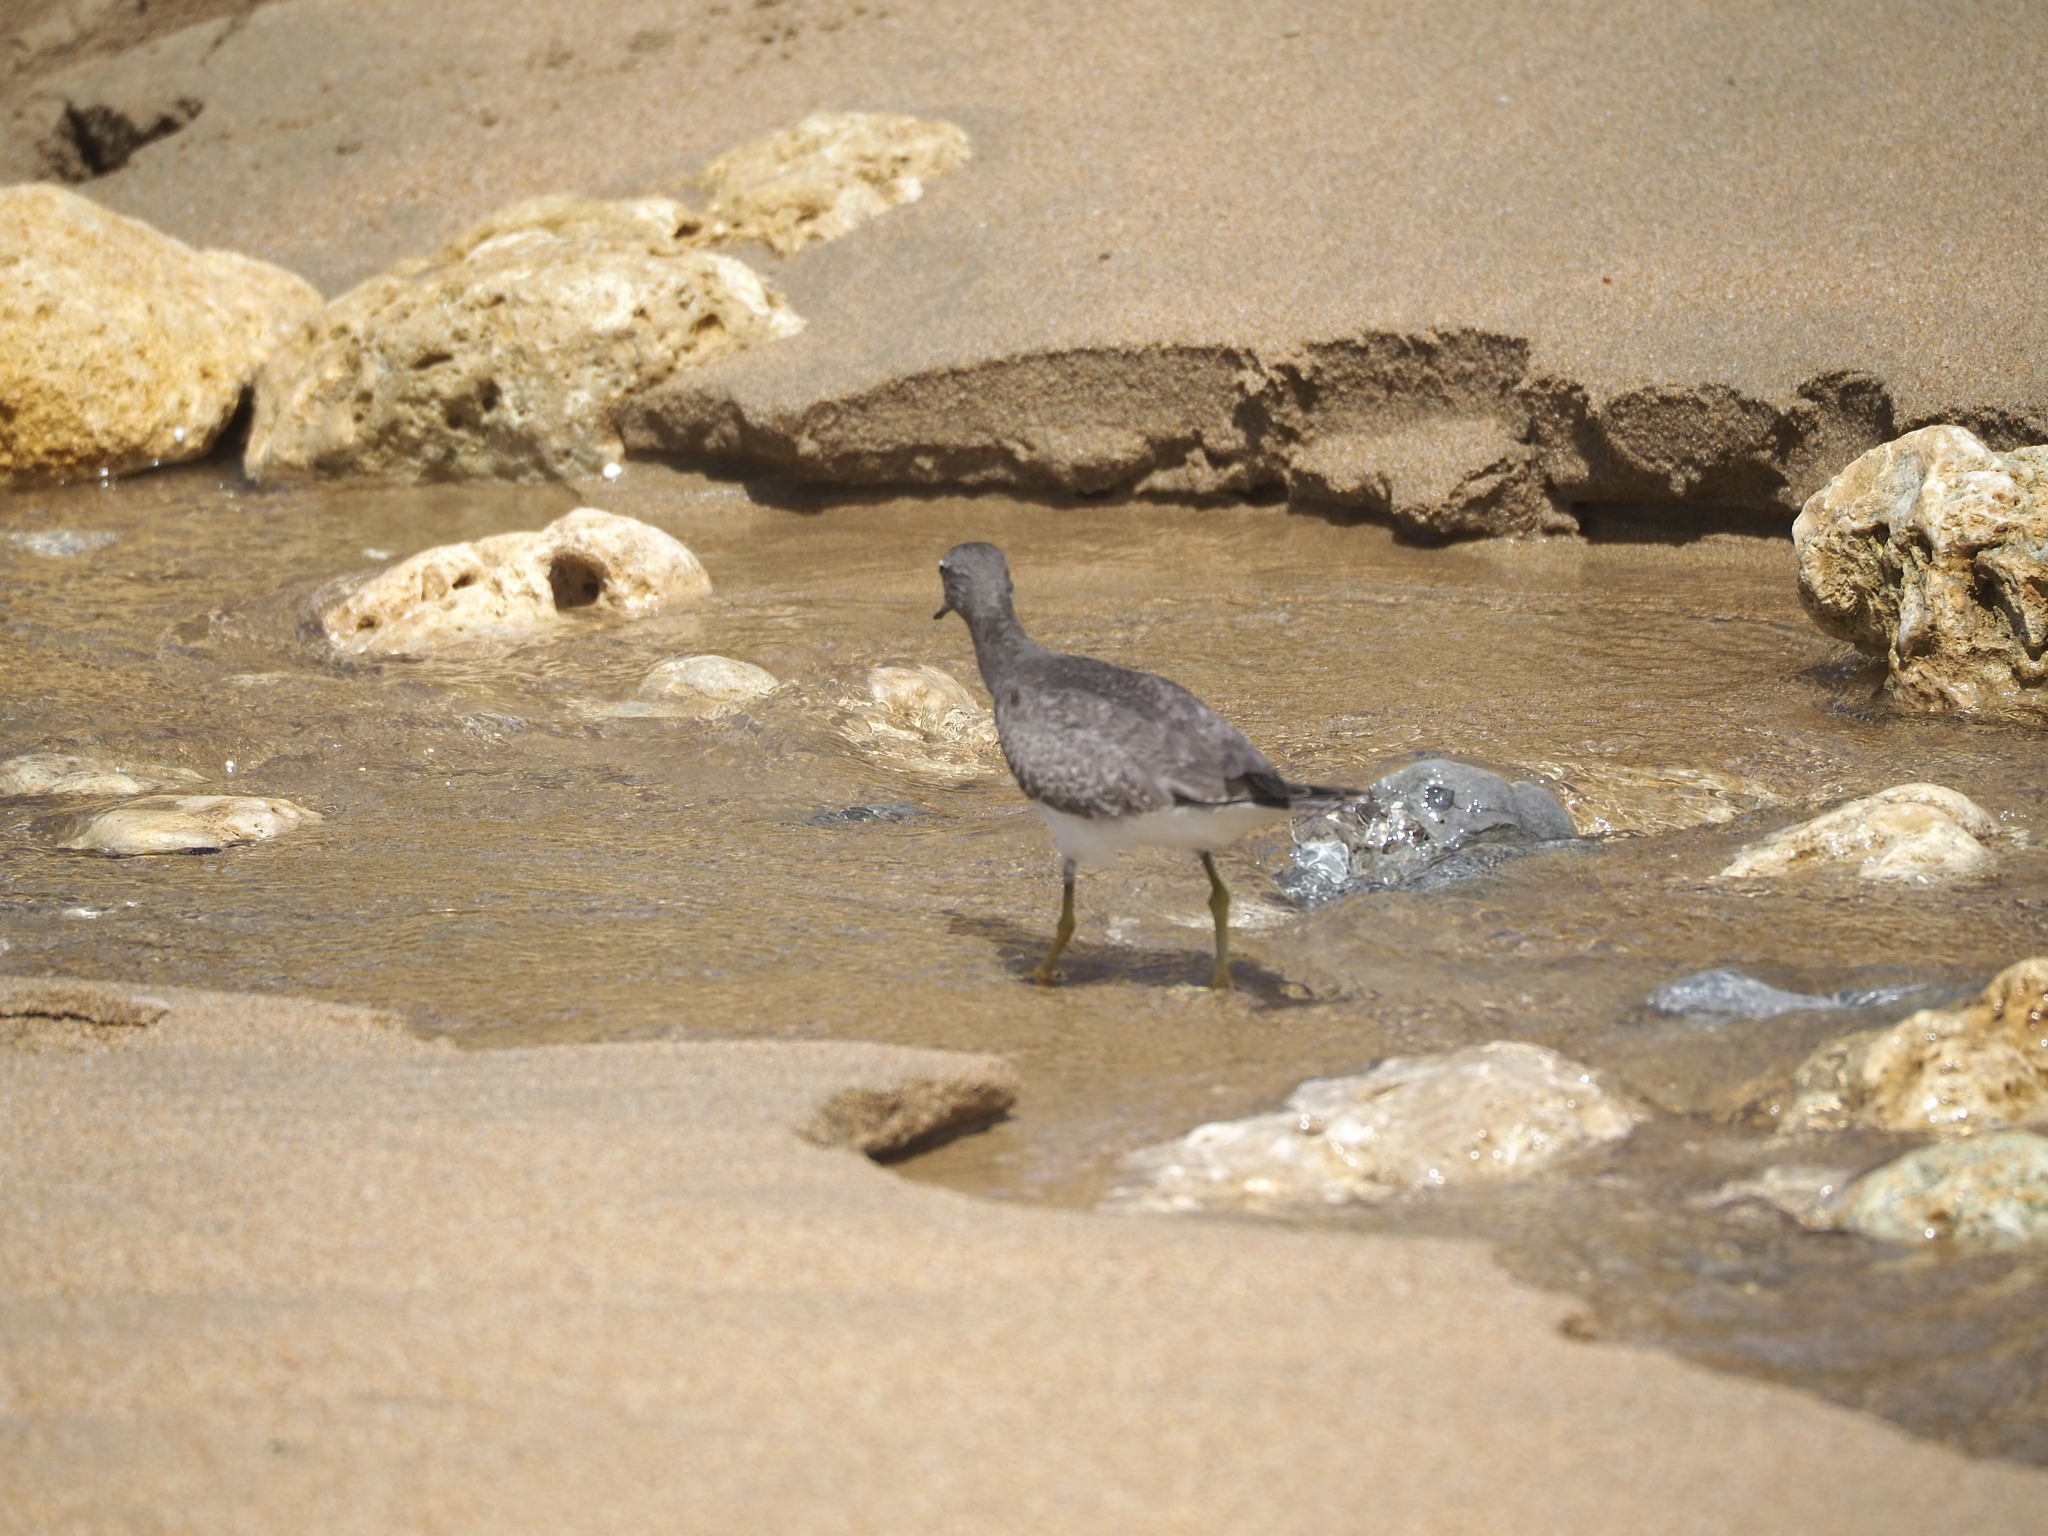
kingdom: Animalia
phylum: Chordata
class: Aves
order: Charadriiformes
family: Scolopacidae
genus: Tringa
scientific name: Tringa brevipes
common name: Grey-tailed tattler
